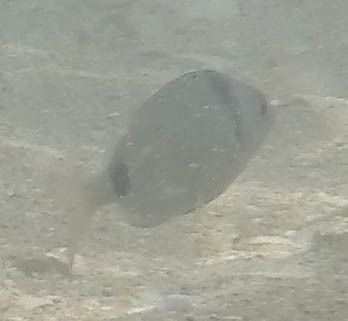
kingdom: Animalia
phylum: Chordata
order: Perciformes
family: Sparidae
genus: Diplodus
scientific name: Diplodus vulgaris
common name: Common two-banded seabream
